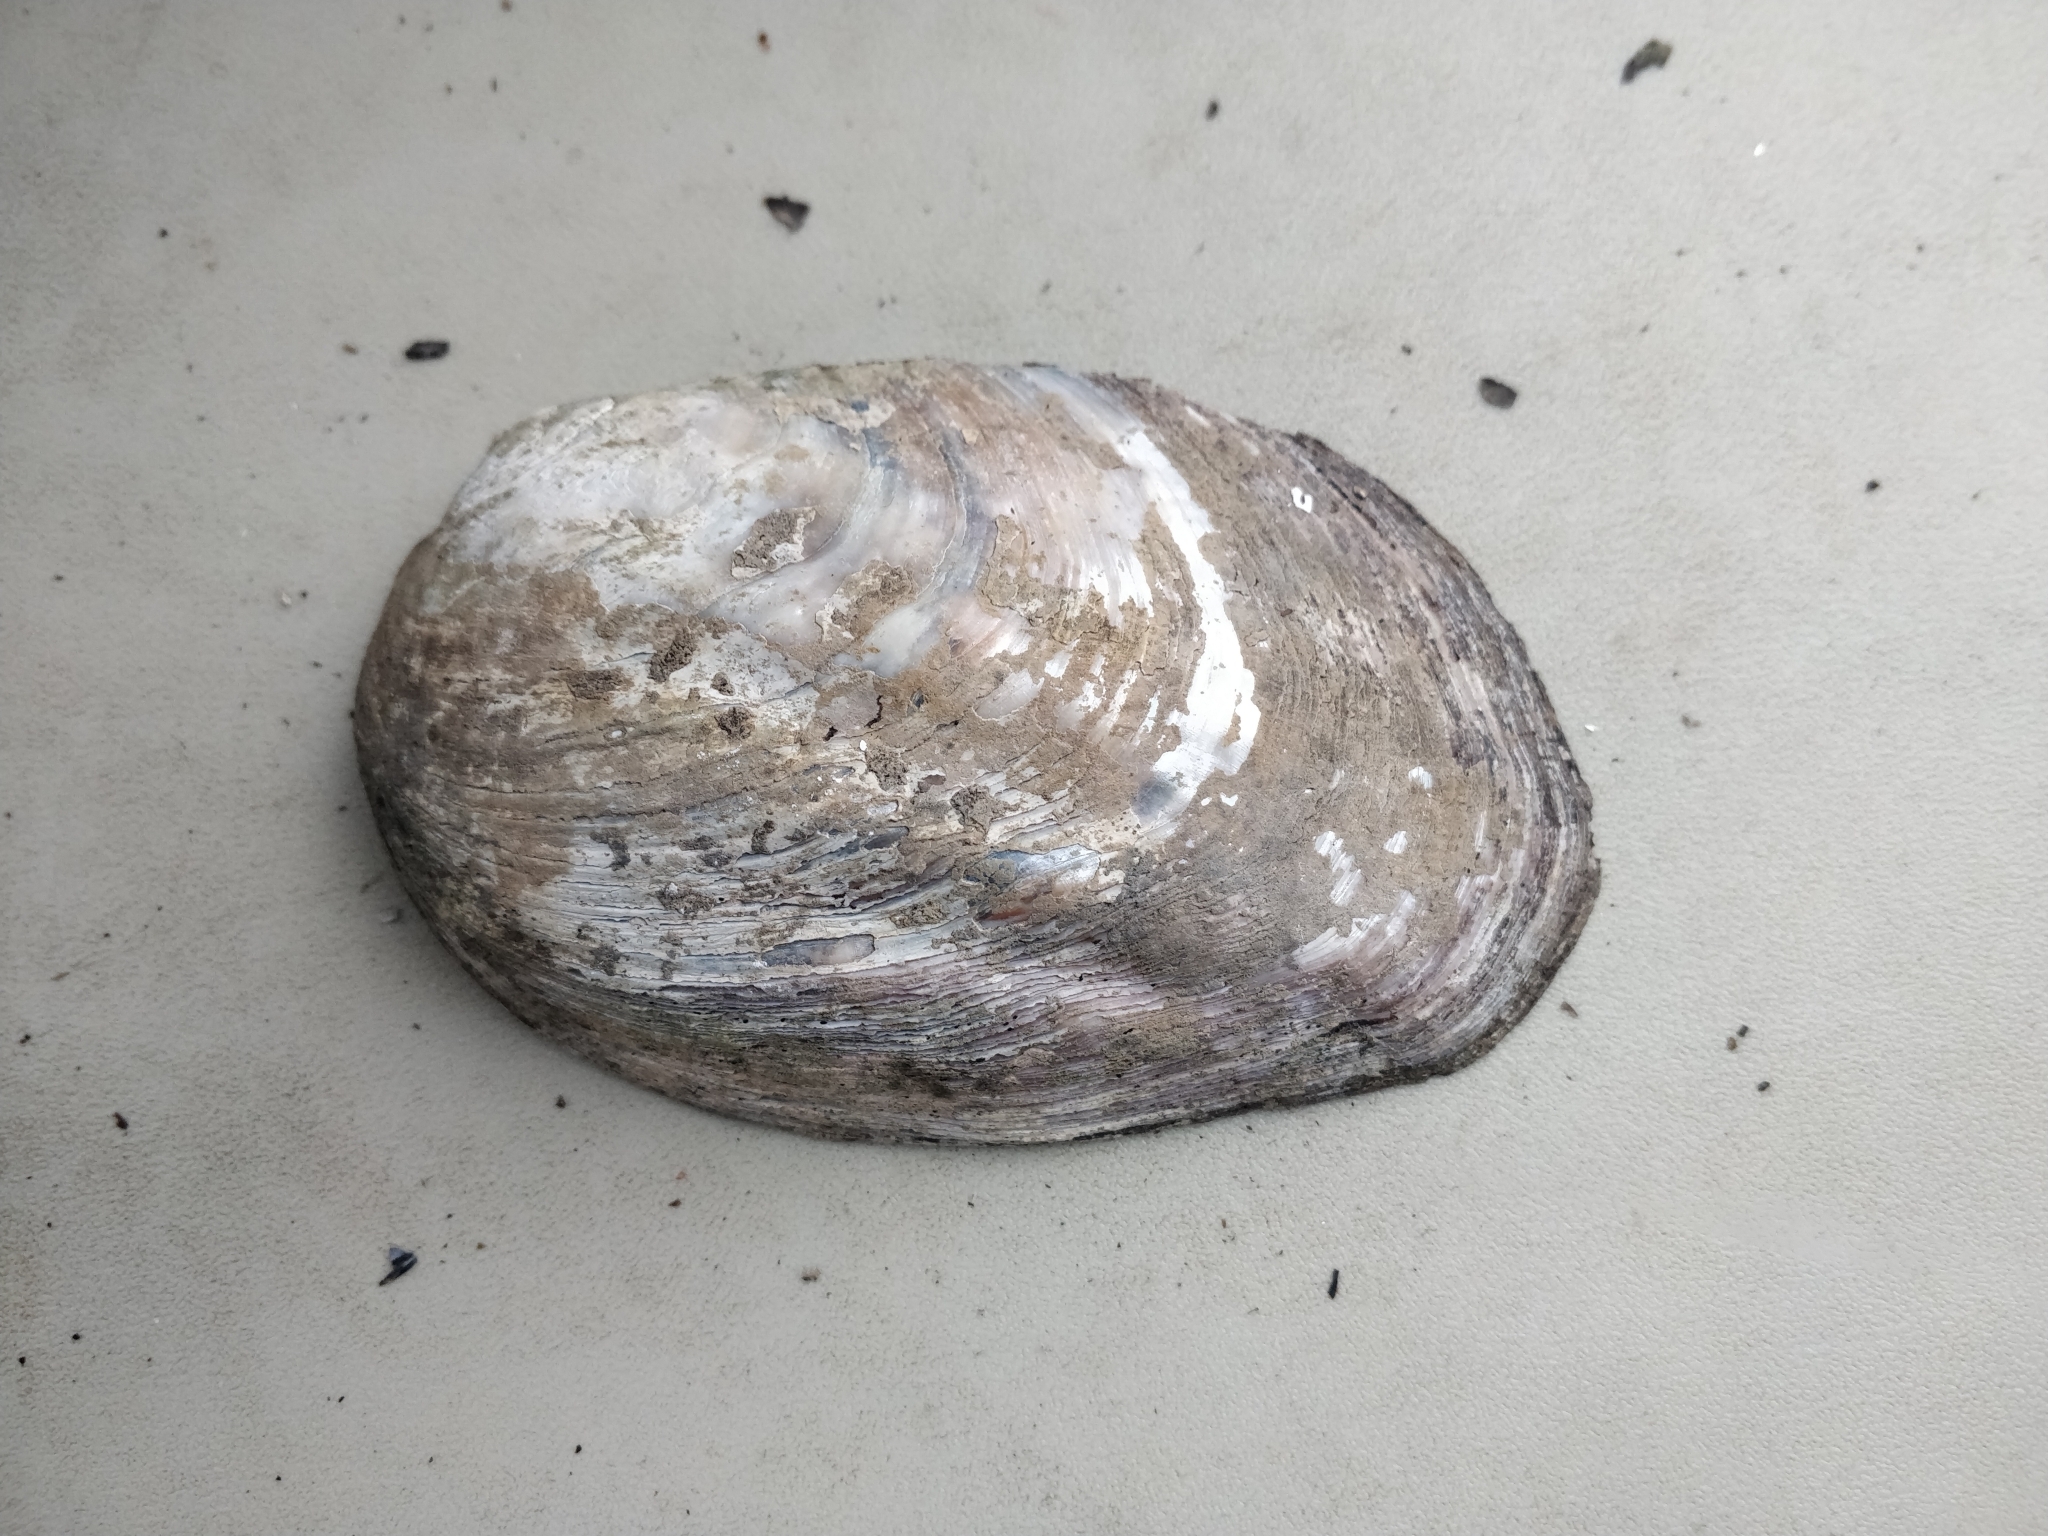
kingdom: Animalia
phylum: Mollusca
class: Bivalvia
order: Unionida
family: Unionidae
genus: Amblema
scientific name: Amblema plicata
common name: Threeridge
